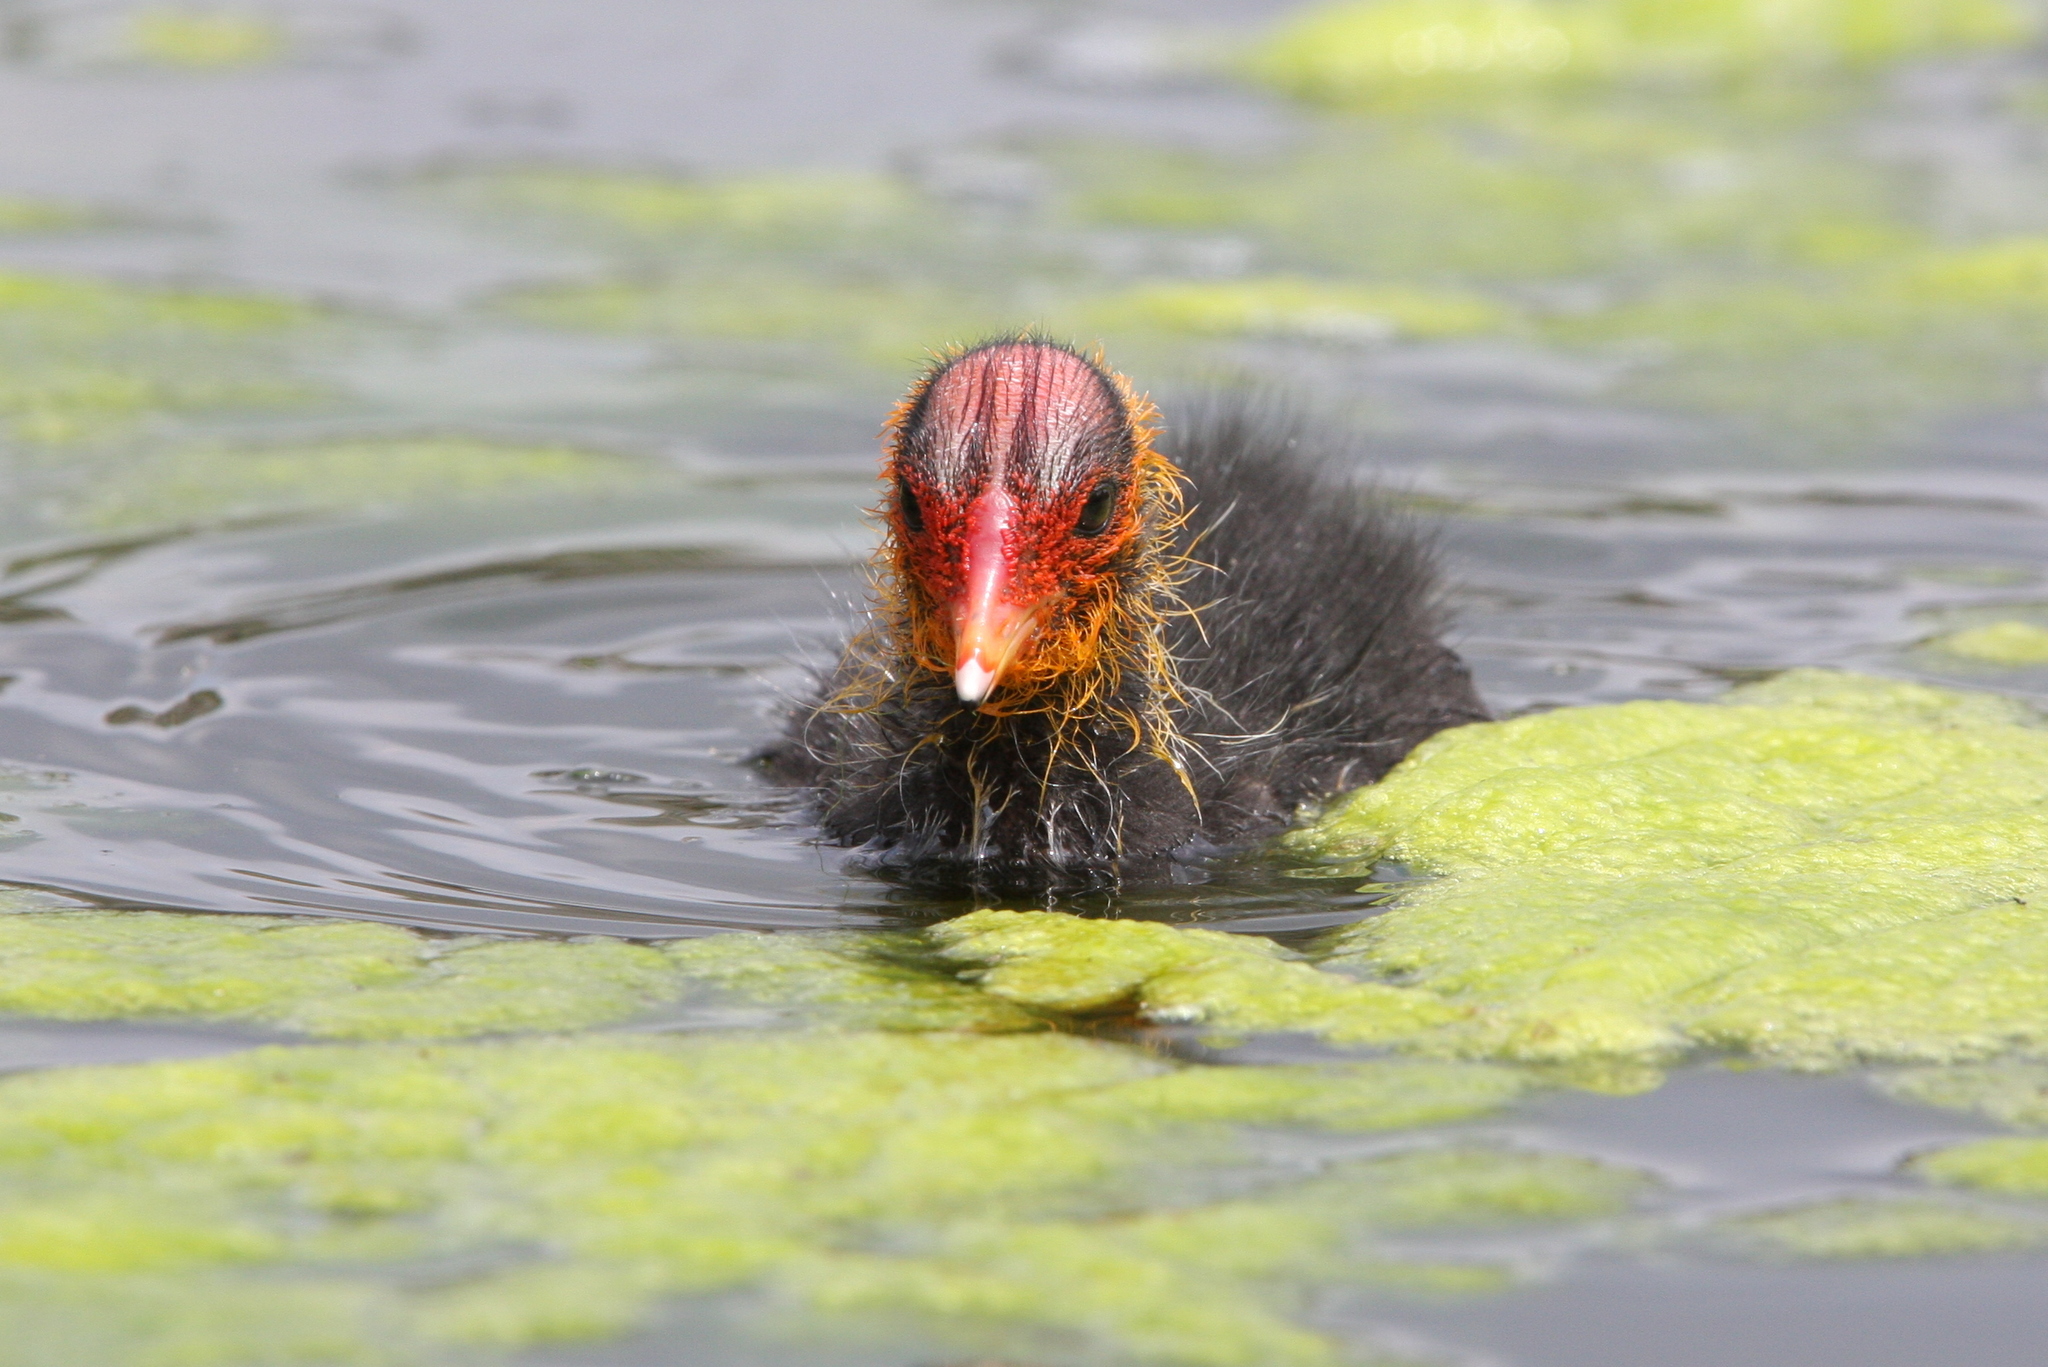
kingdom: Animalia
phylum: Chordata
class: Aves
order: Gruiformes
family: Rallidae
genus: Fulica
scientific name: Fulica atra
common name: Eurasian coot
